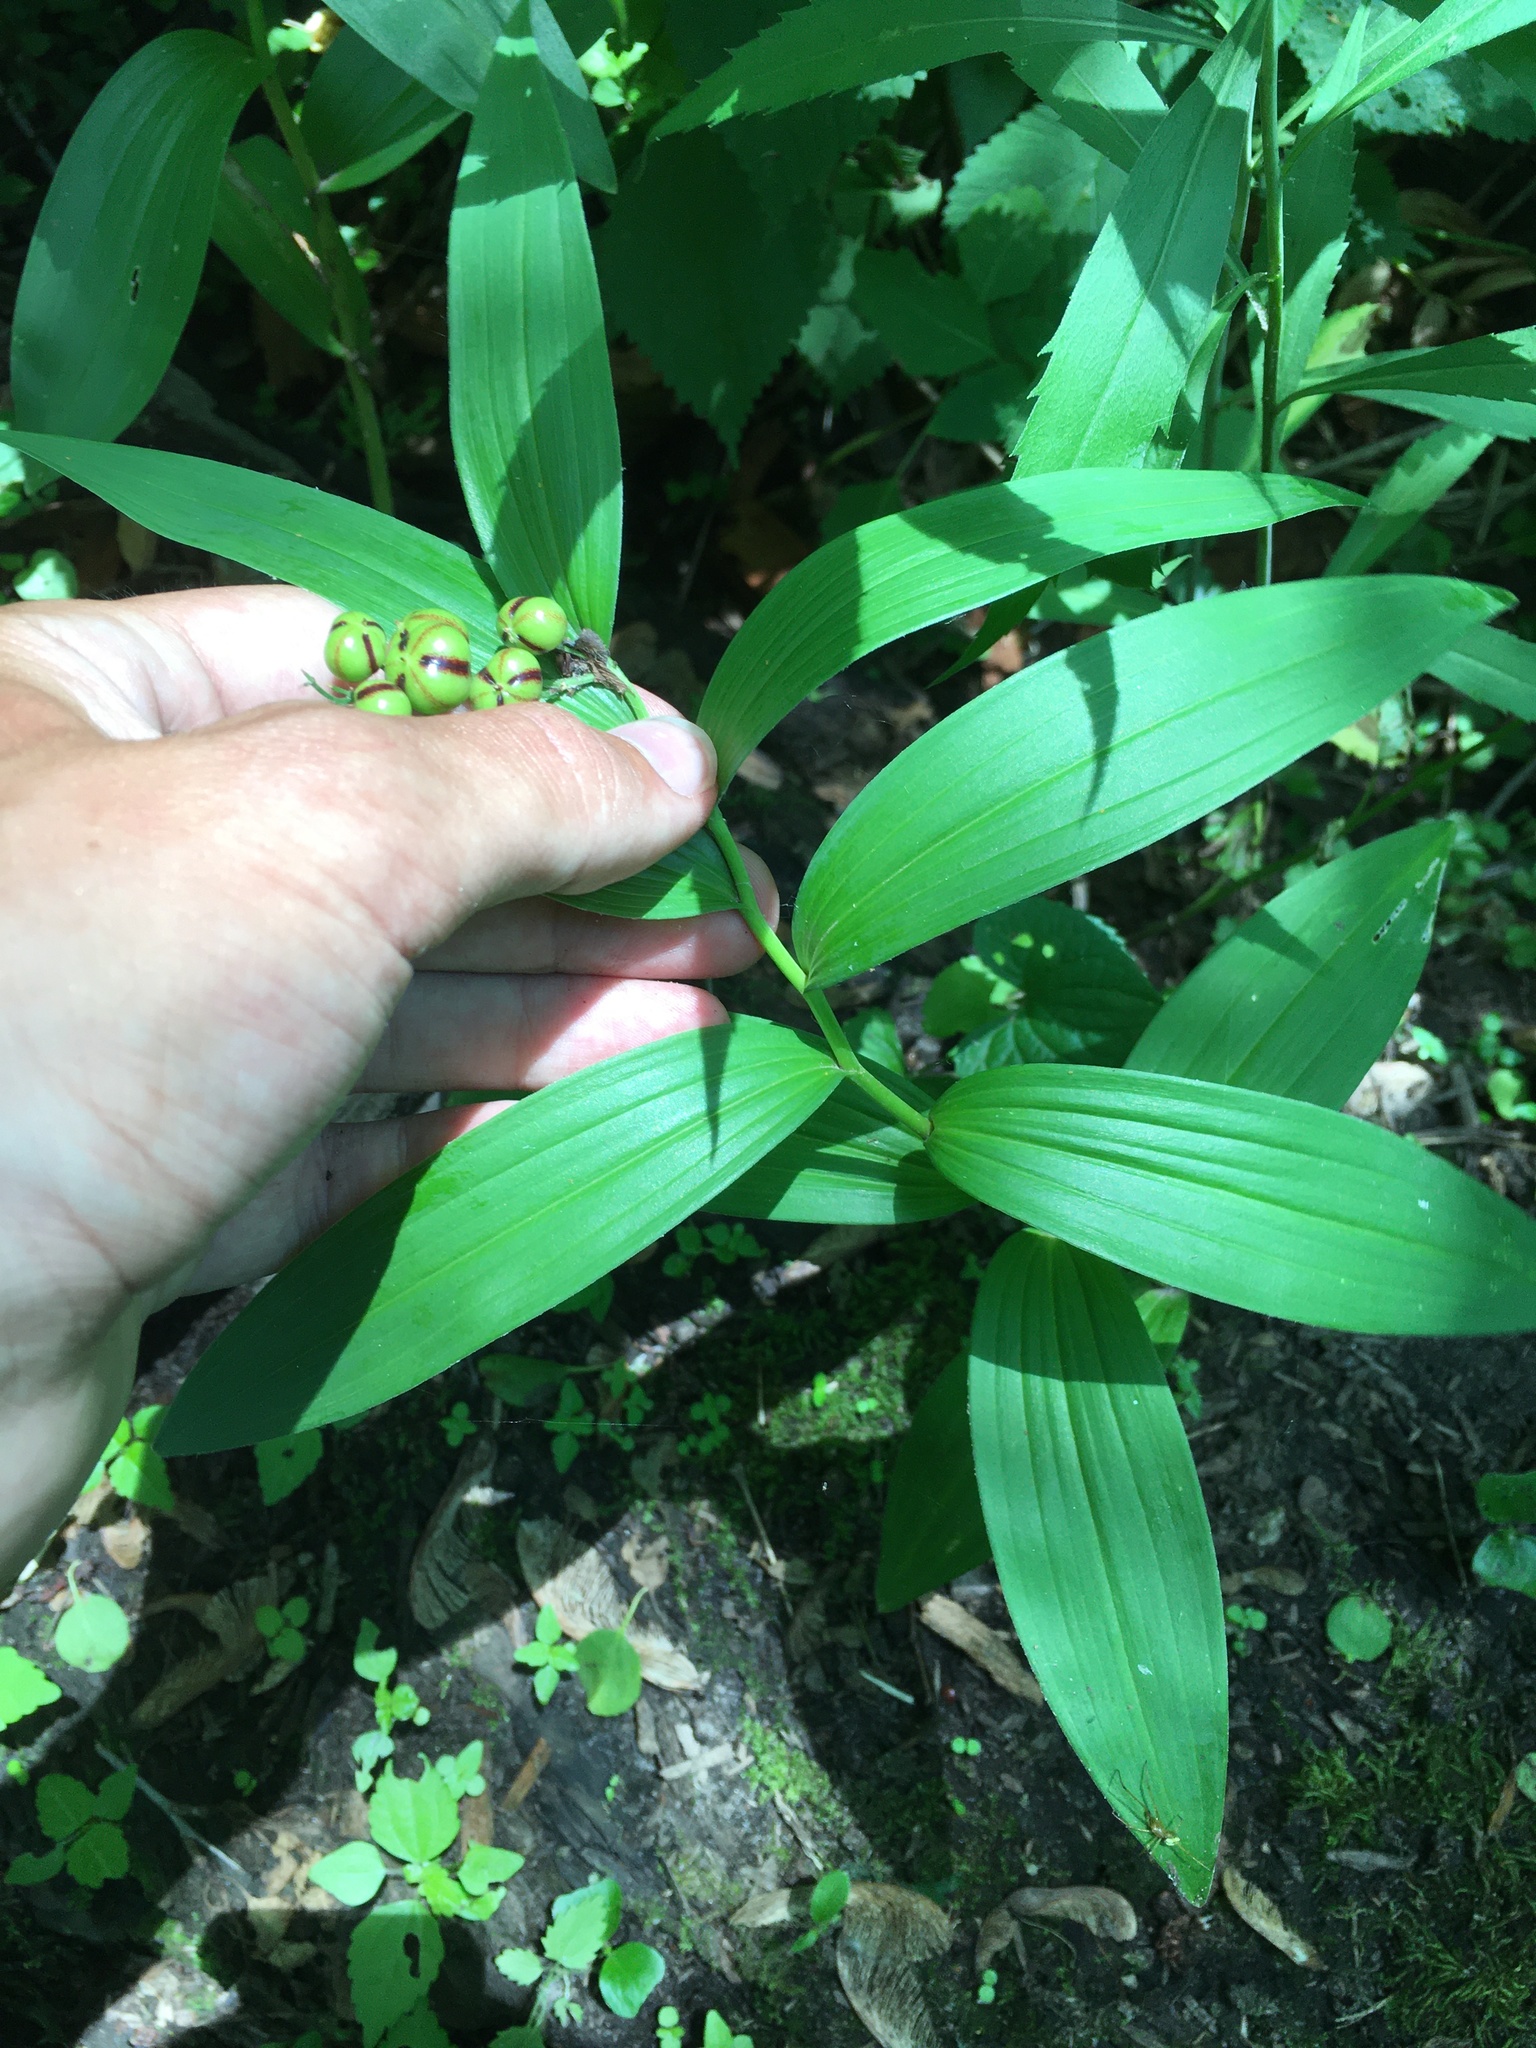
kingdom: Plantae
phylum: Tracheophyta
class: Liliopsida
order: Asparagales
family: Asparagaceae
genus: Maianthemum
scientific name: Maianthemum stellatum
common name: Little false solomon's seal
